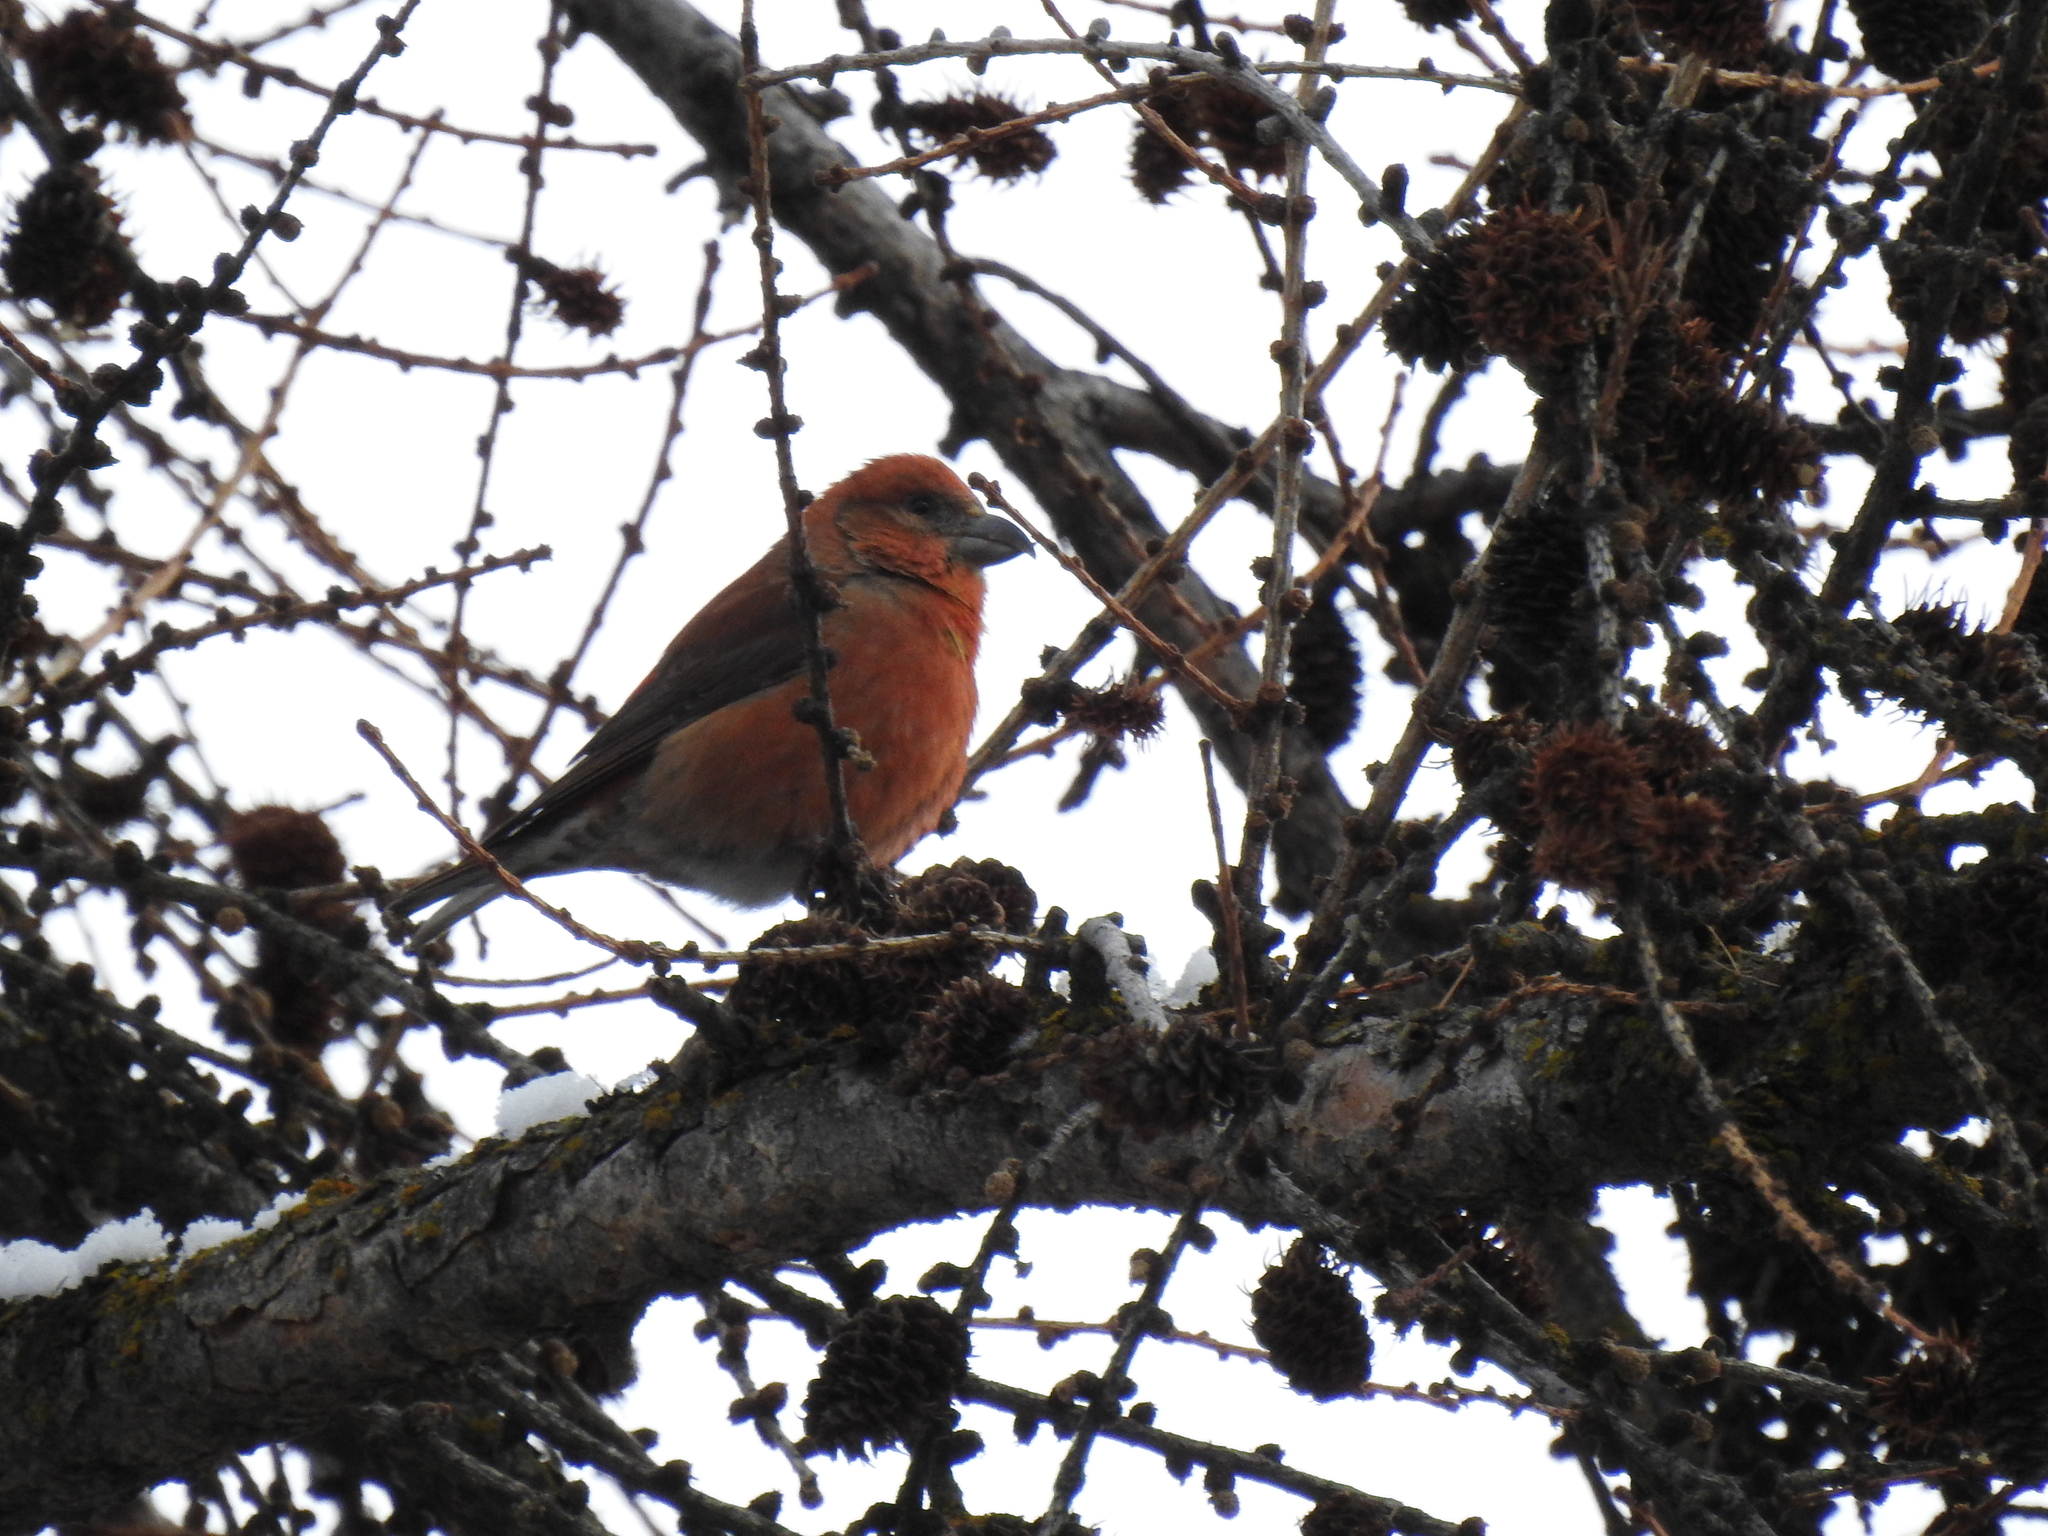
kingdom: Animalia
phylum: Chordata
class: Aves
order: Passeriformes
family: Fringillidae
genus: Loxia
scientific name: Loxia curvirostra
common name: Red crossbill
